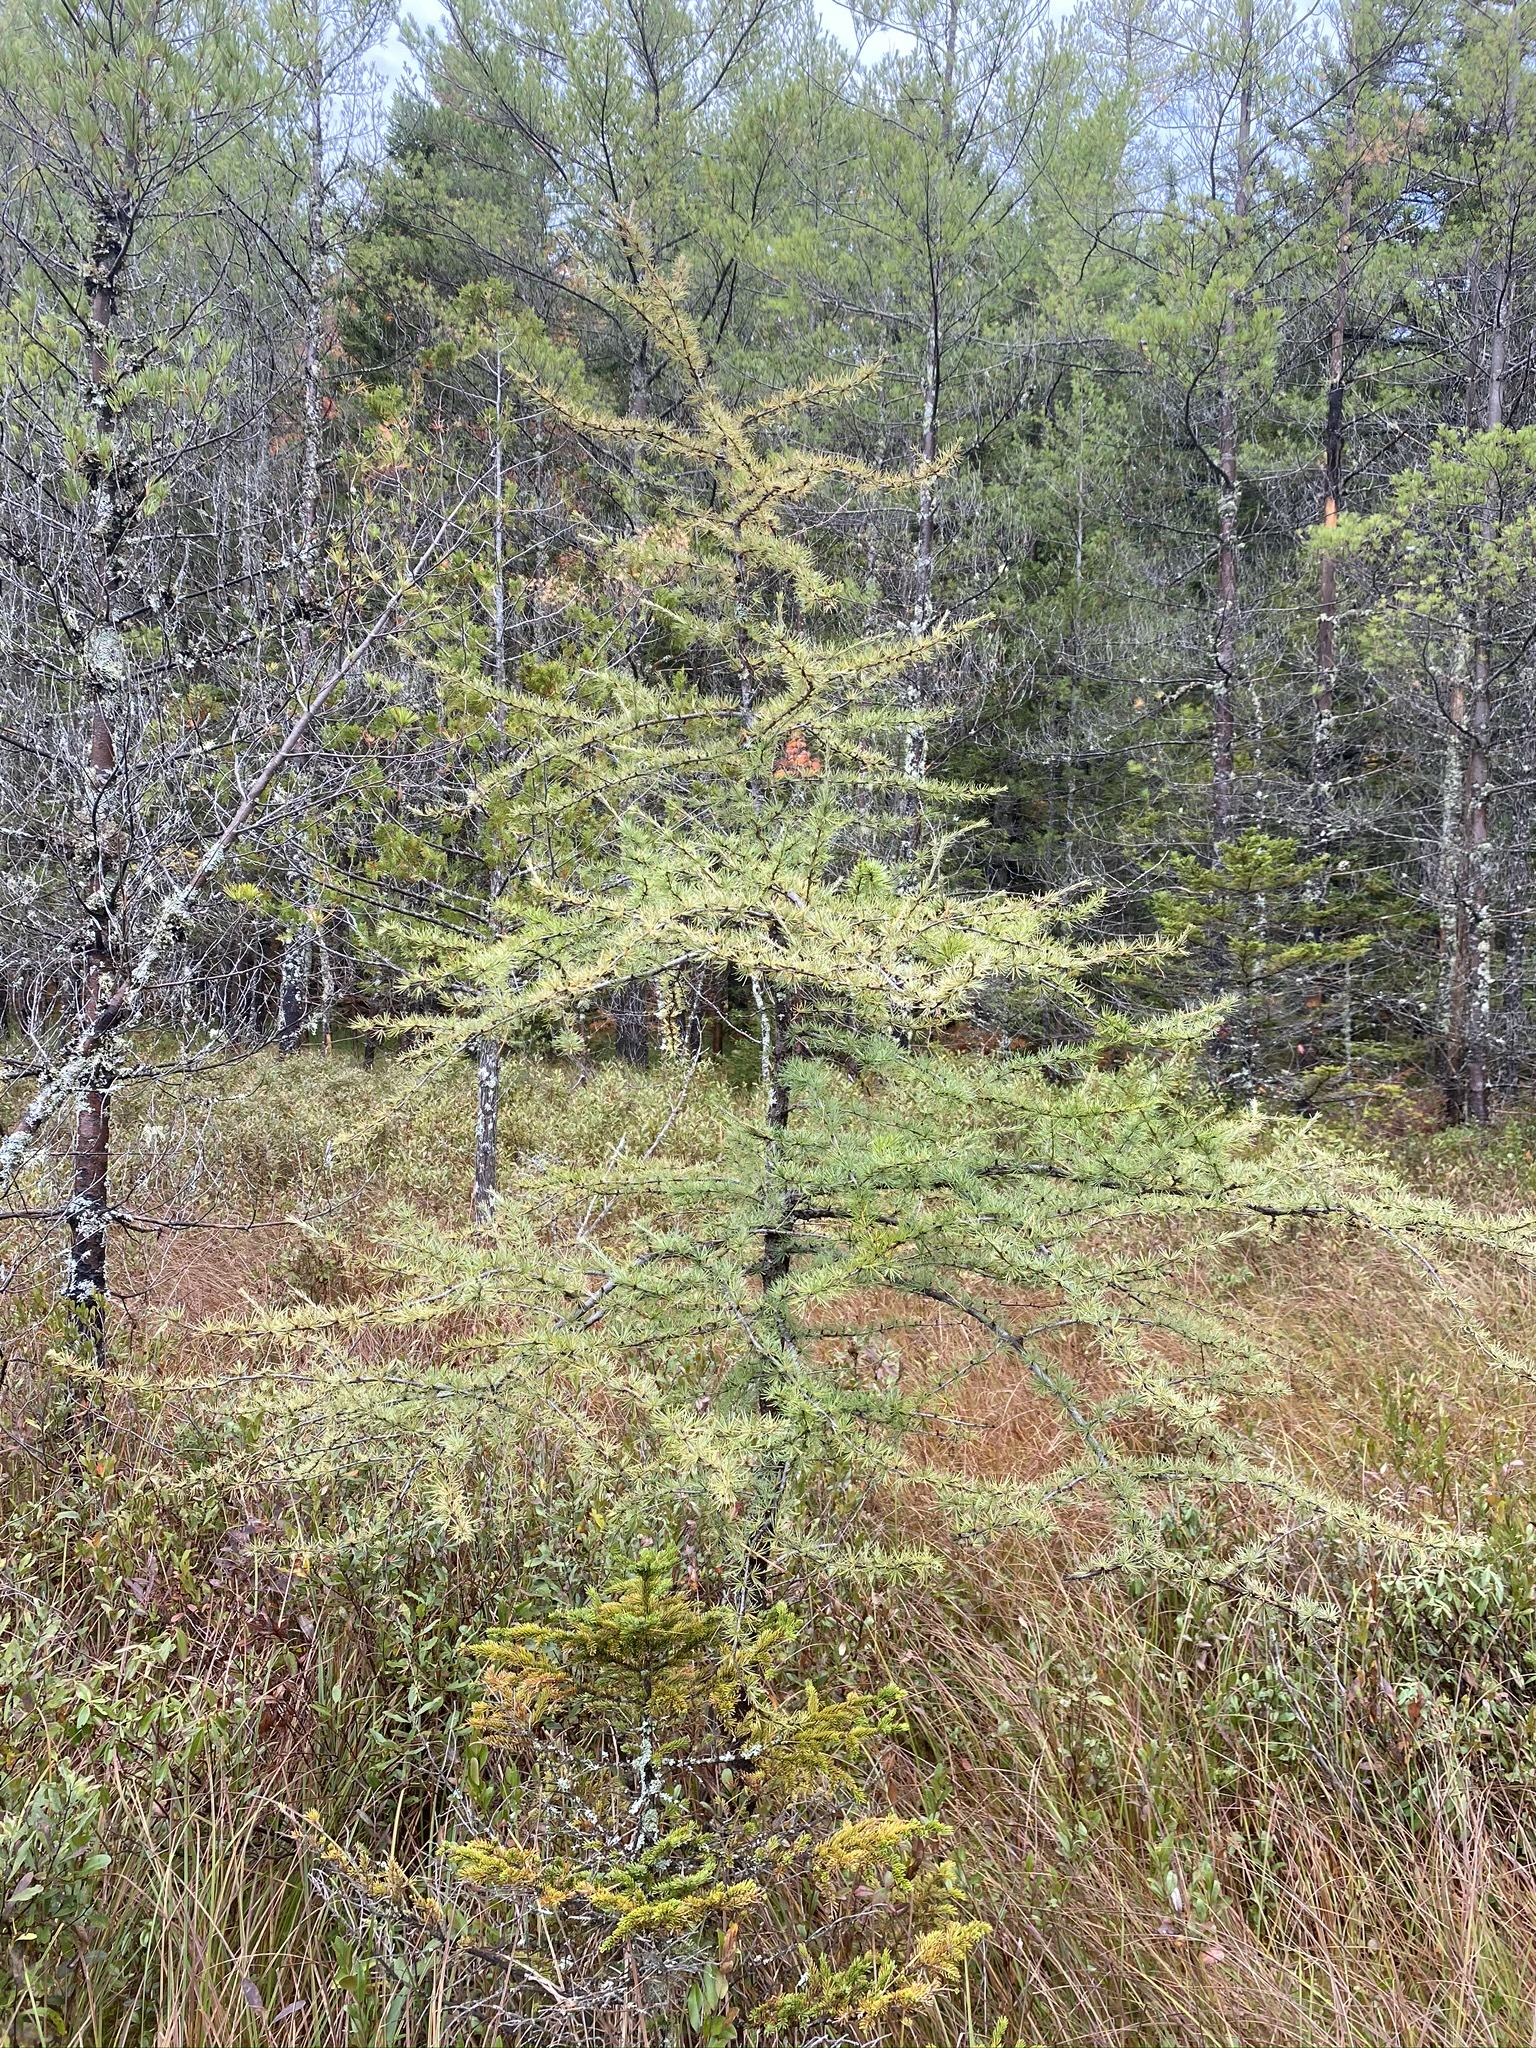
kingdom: Plantae
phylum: Tracheophyta
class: Pinopsida
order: Pinales
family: Pinaceae
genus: Larix
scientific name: Larix laricina
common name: American larch
